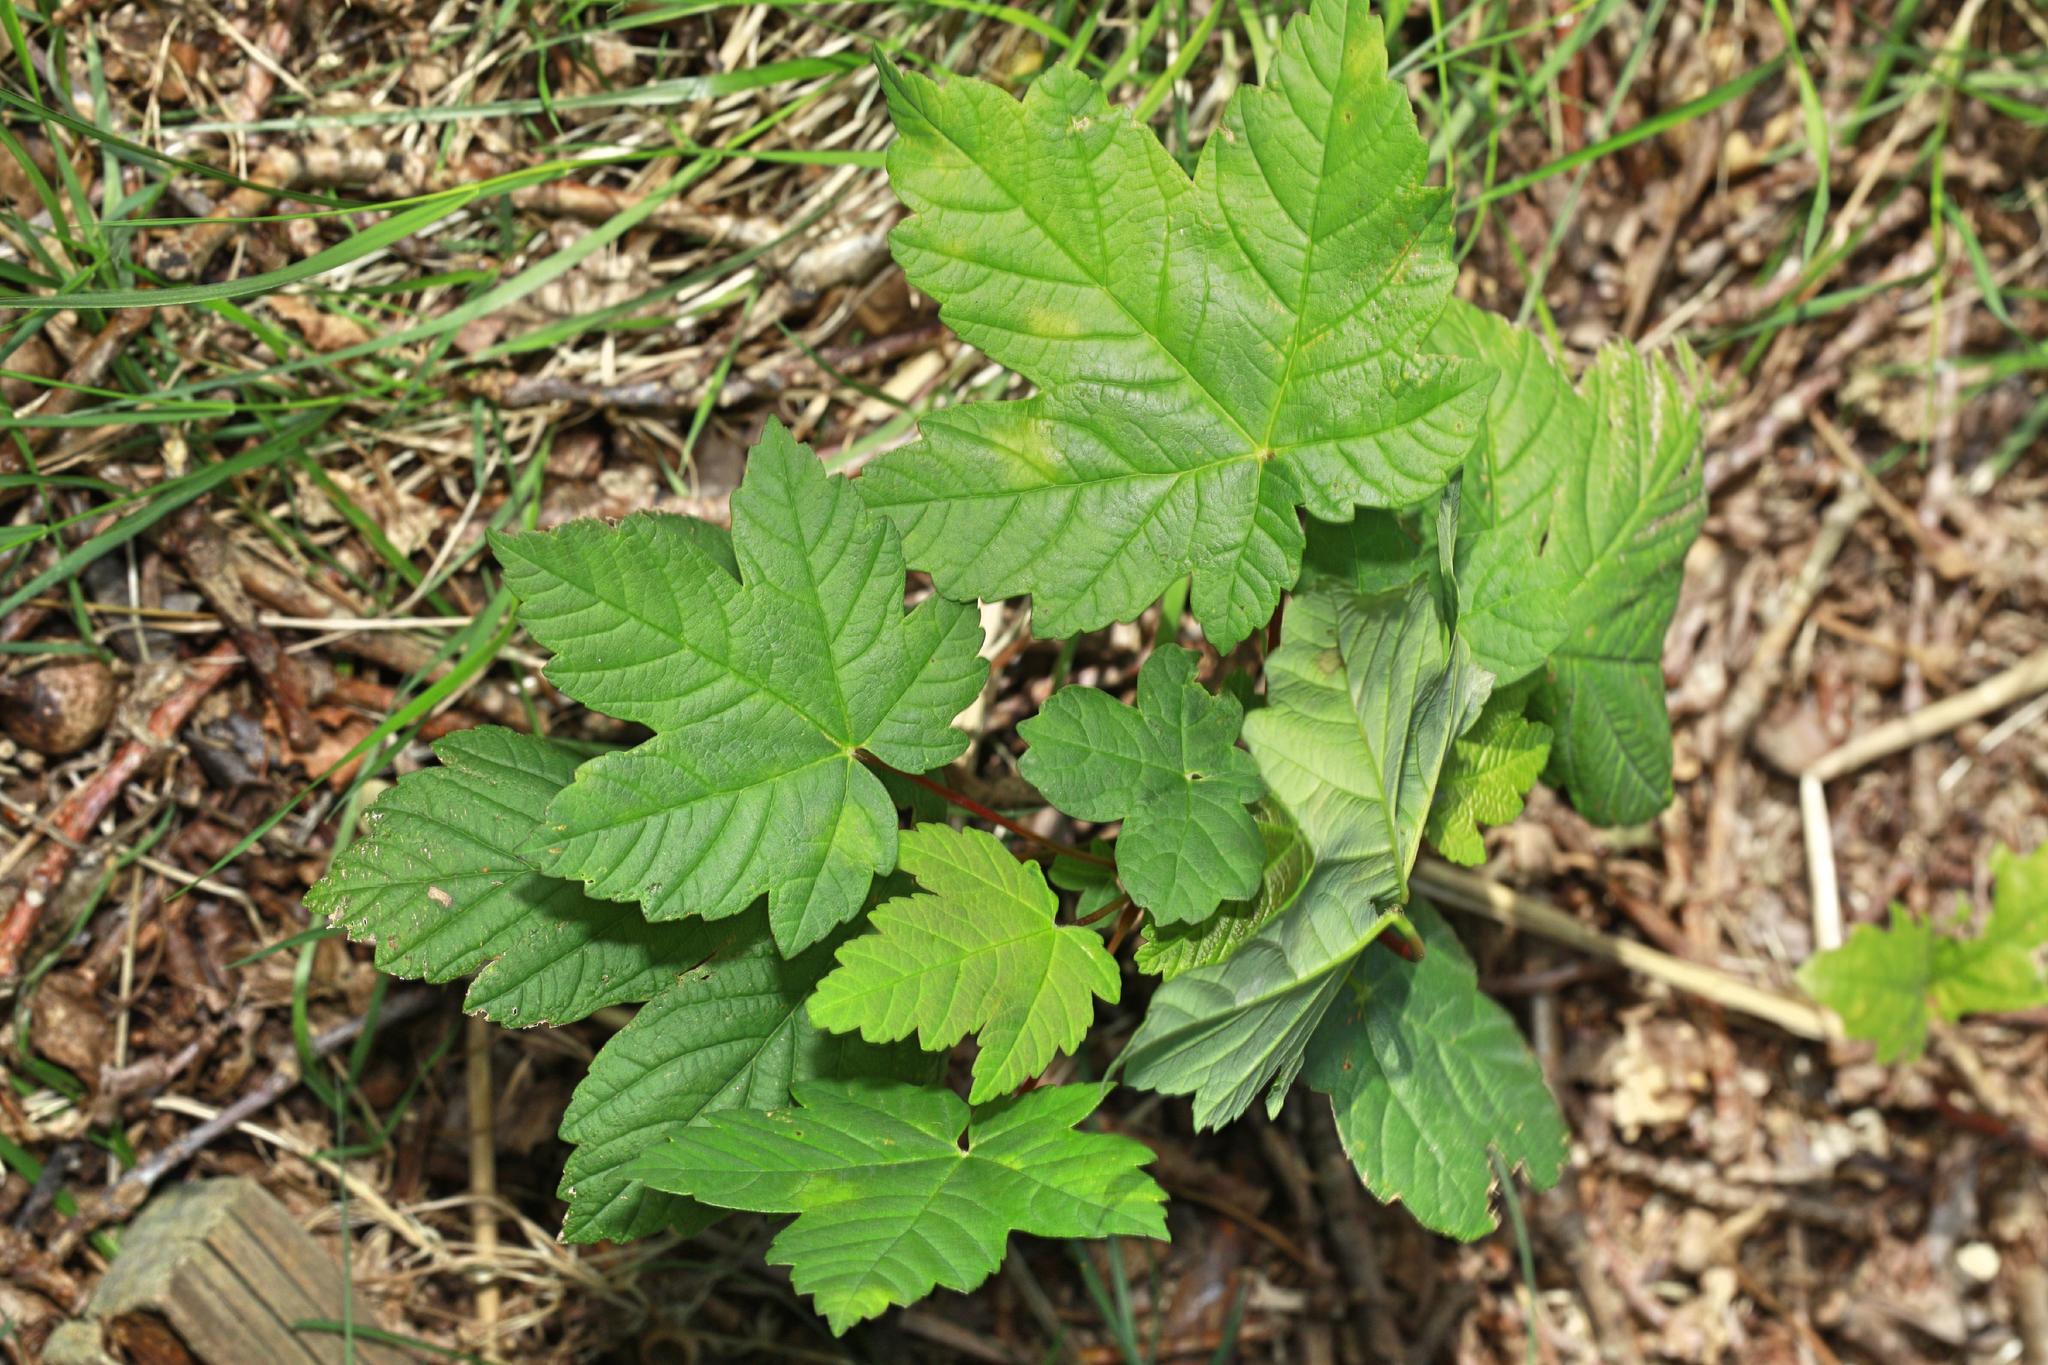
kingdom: Plantae
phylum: Tracheophyta
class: Magnoliopsida
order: Sapindales
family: Sapindaceae
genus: Acer
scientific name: Acer pseudoplatanus
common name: Sycamore
